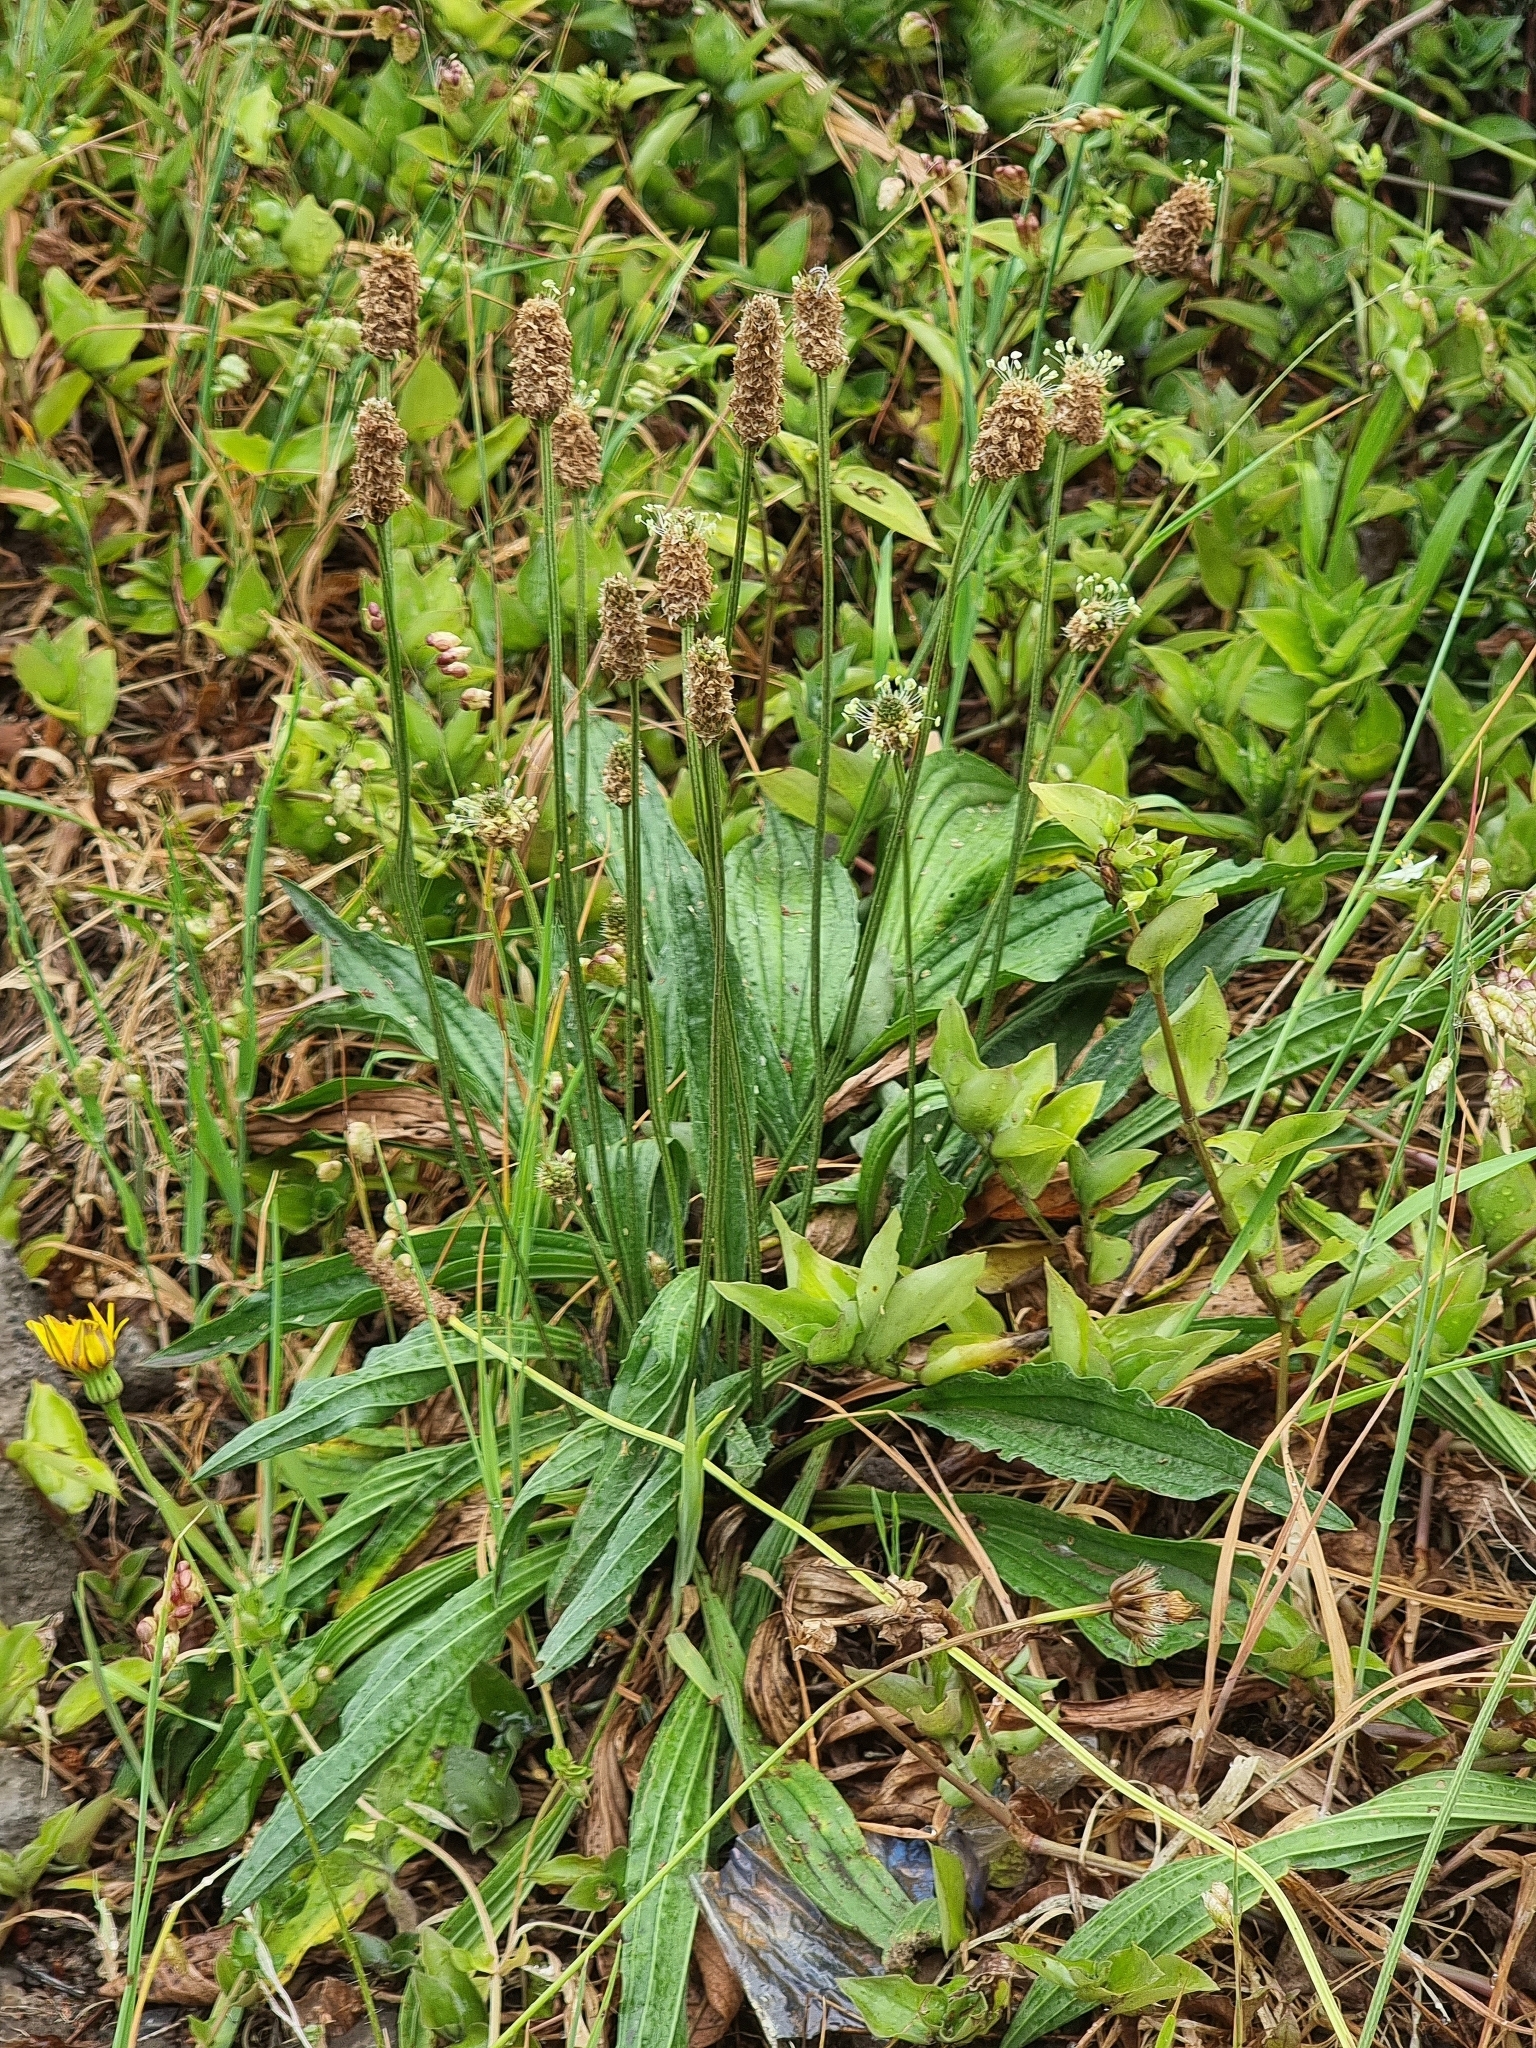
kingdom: Plantae
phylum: Tracheophyta
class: Magnoliopsida
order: Lamiales
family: Plantaginaceae
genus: Plantago
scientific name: Plantago lanceolata
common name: Ribwort plantain
